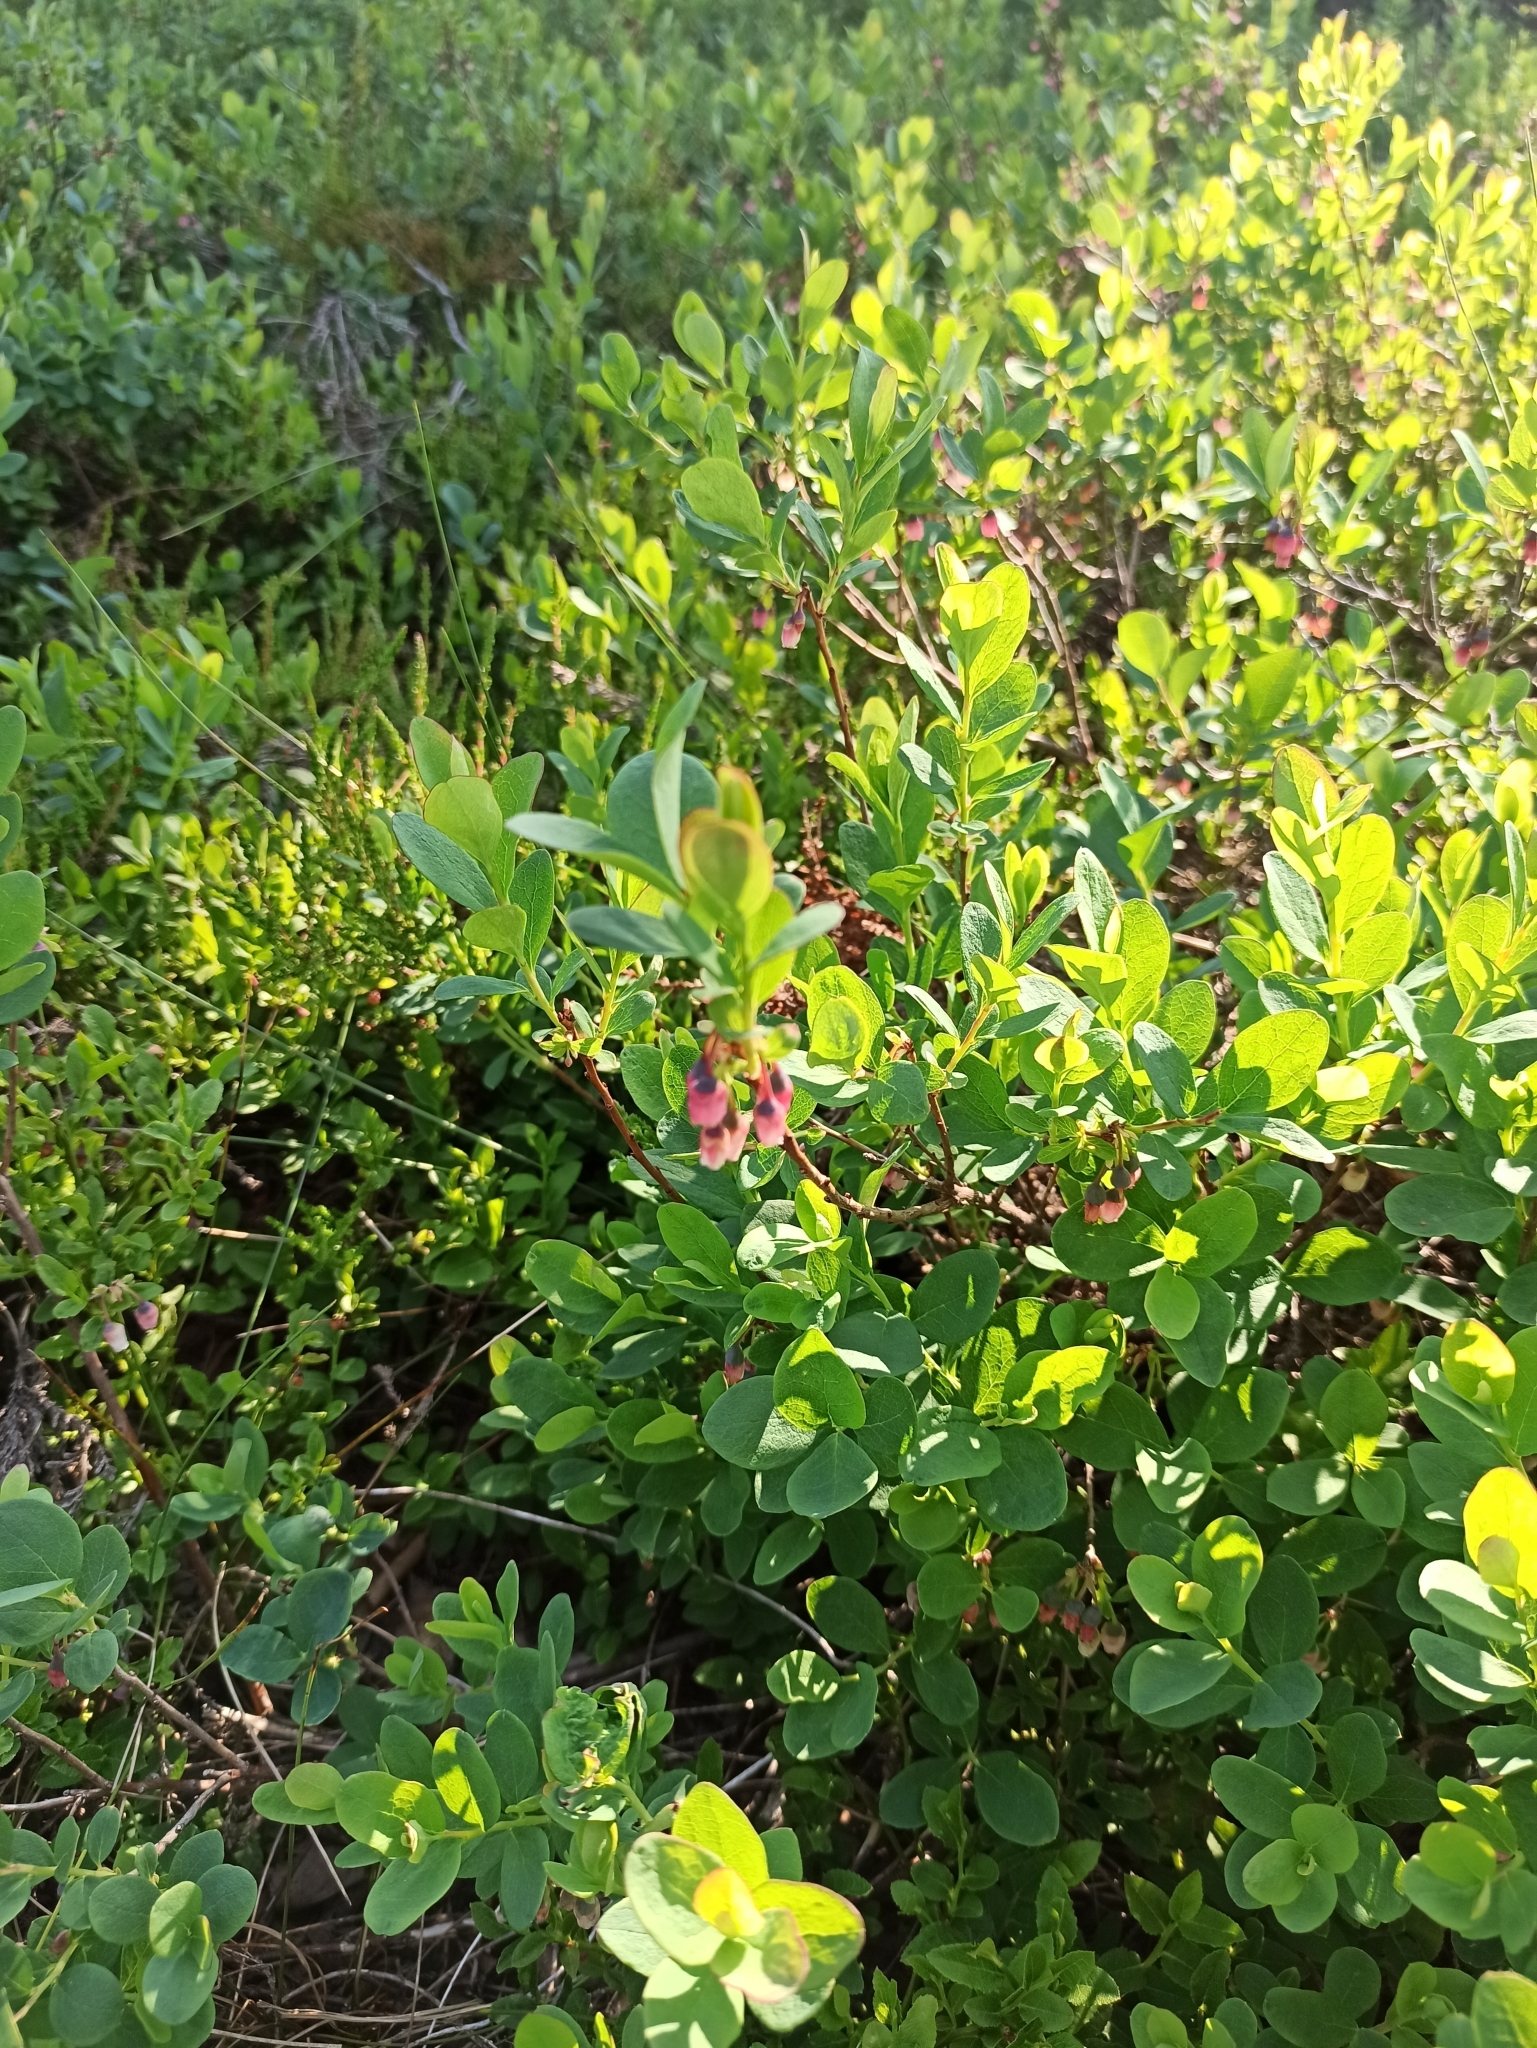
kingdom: Plantae
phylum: Tracheophyta
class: Magnoliopsida
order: Ericales
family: Ericaceae
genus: Vaccinium
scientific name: Vaccinium uliginosum
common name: Bog bilberry
